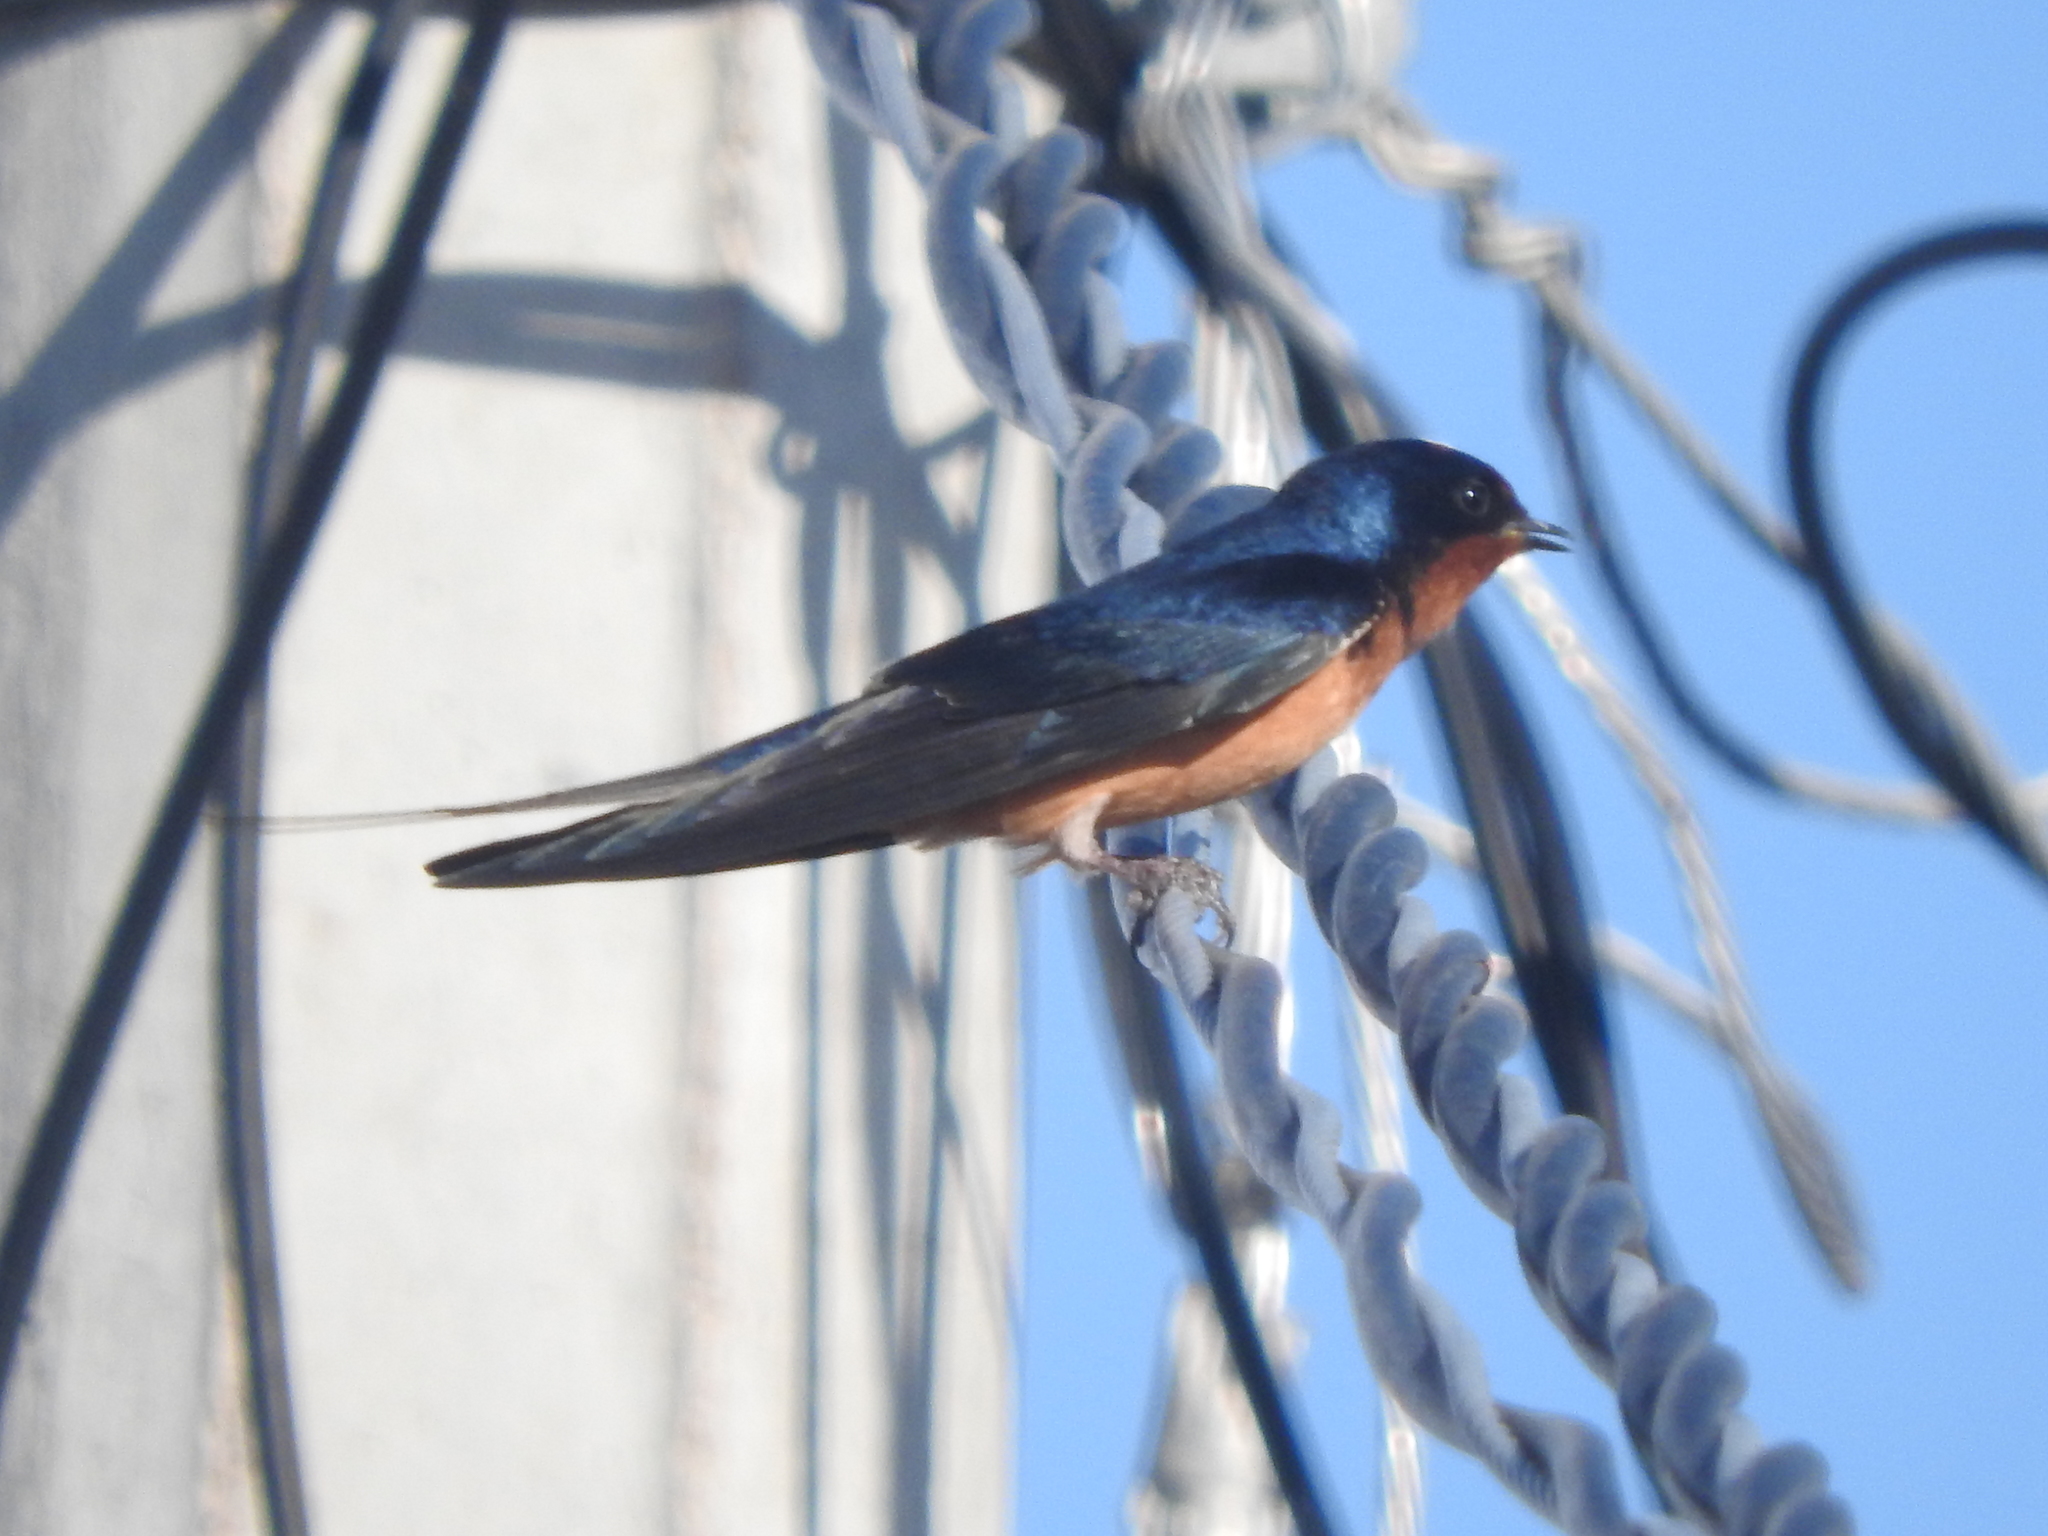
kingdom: Animalia
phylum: Chordata
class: Aves
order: Passeriformes
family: Hirundinidae
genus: Hirundo
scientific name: Hirundo rustica
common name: Barn swallow
